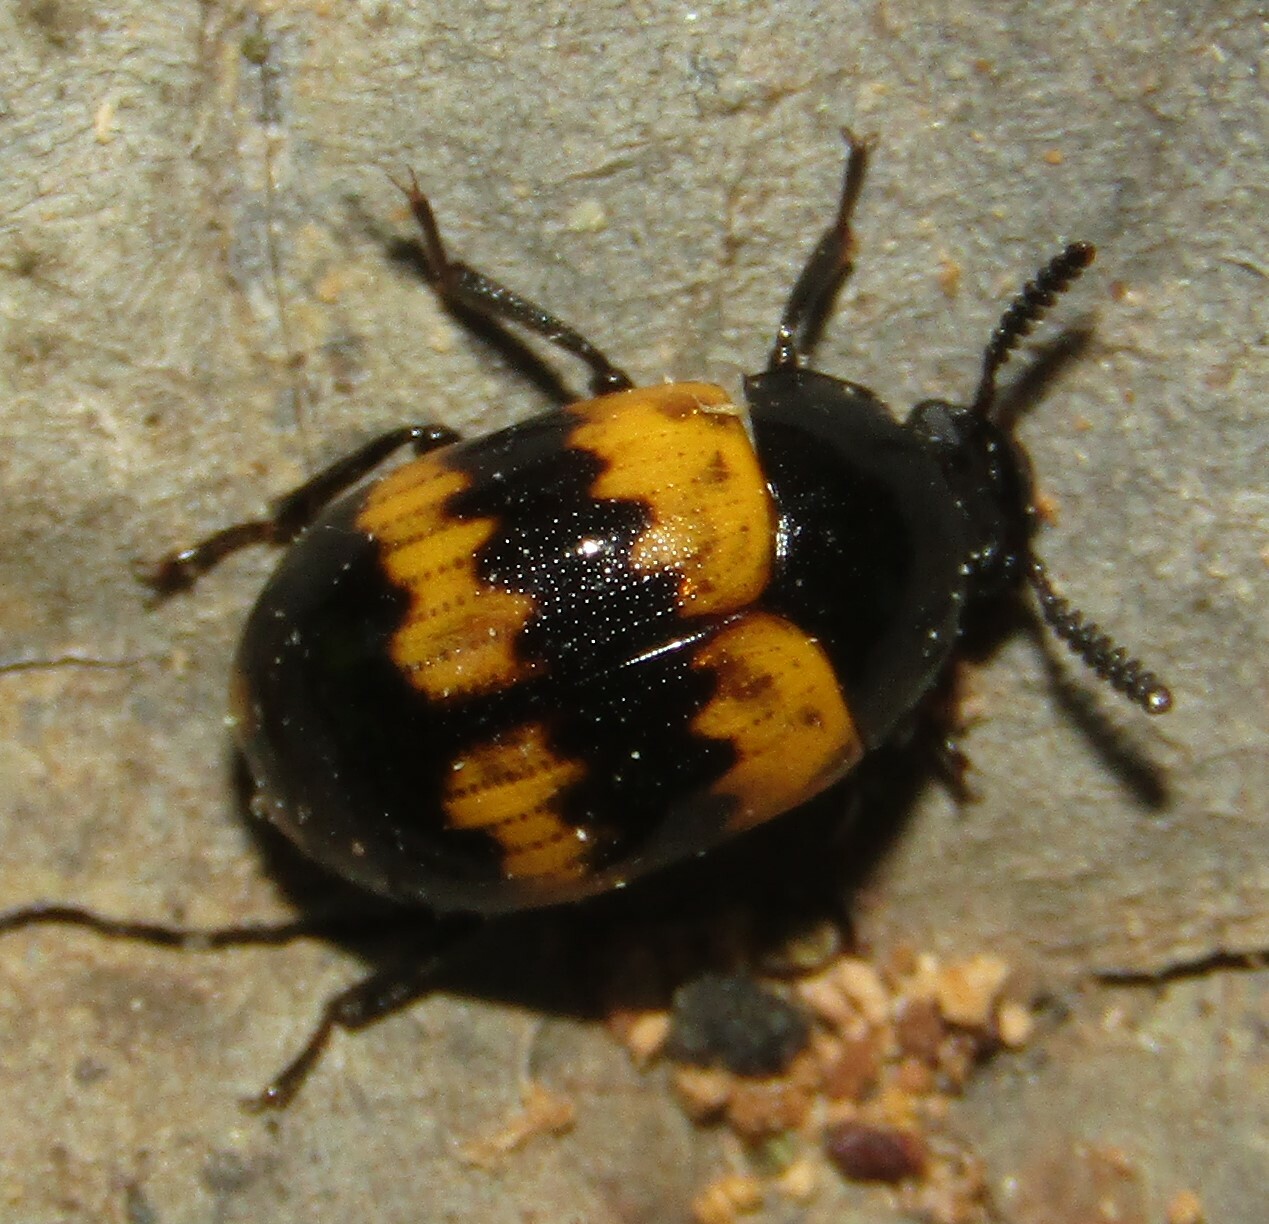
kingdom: Animalia
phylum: Arthropoda
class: Insecta
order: Coleoptera
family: Tenebrionidae
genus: Diaperis
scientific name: Diaperis boleti
